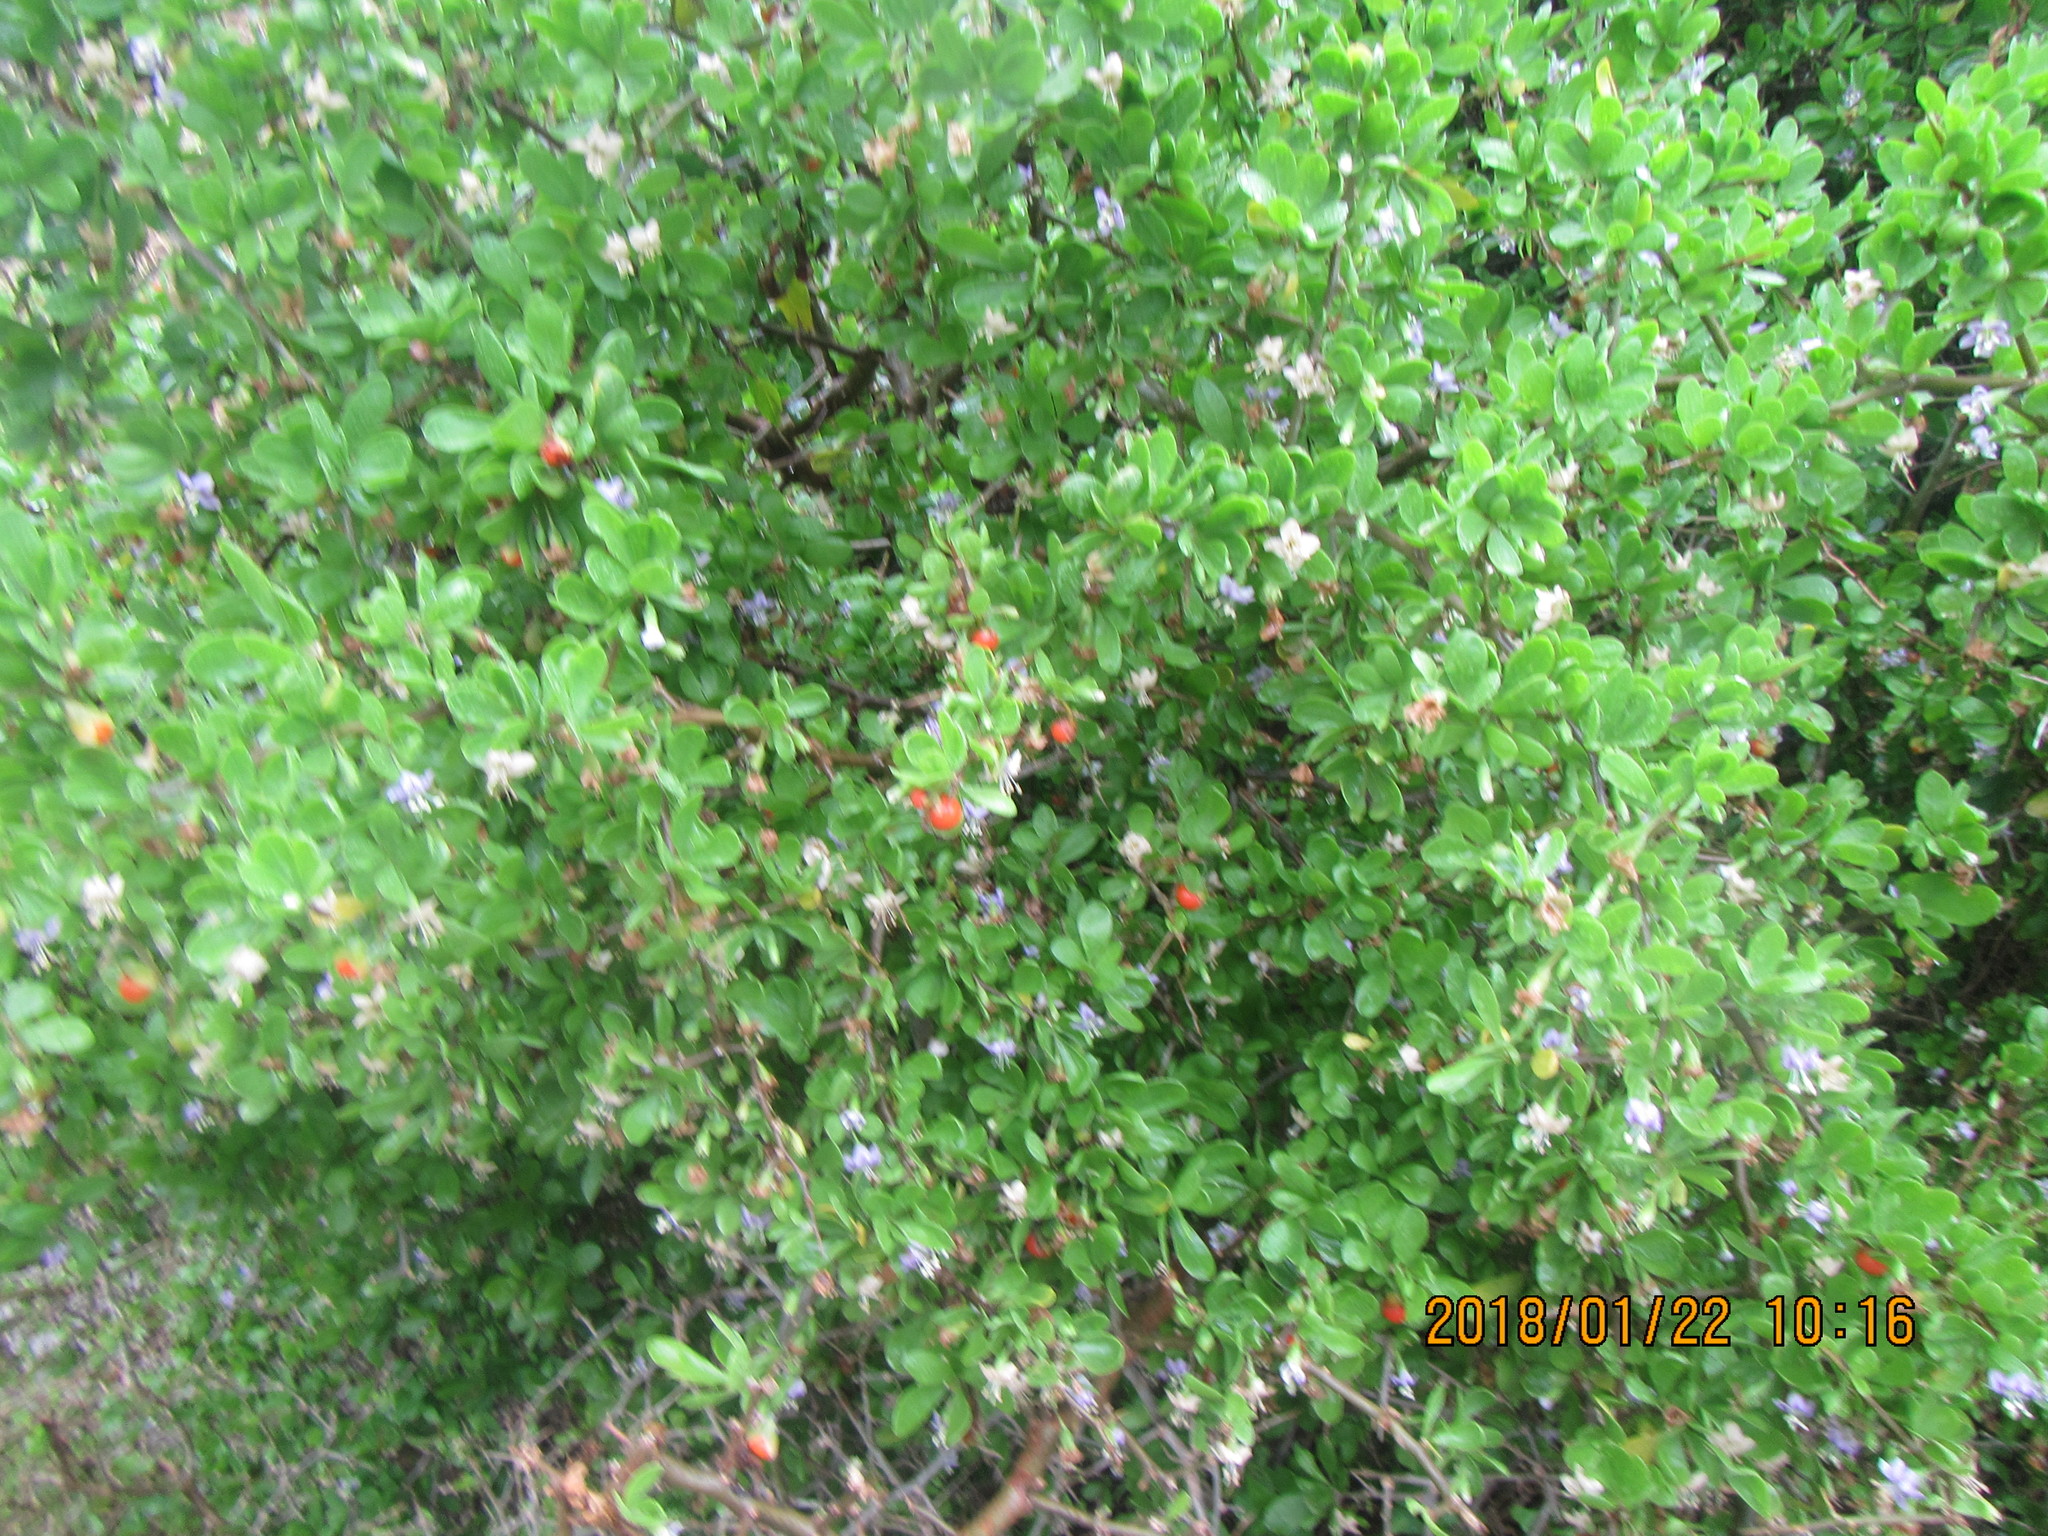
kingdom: Plantae
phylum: Tracheophyta
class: Magnoliopsida
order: Solanales
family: Solanaceae
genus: Lycium
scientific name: Lycium ferocissimum
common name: African boxthorn
